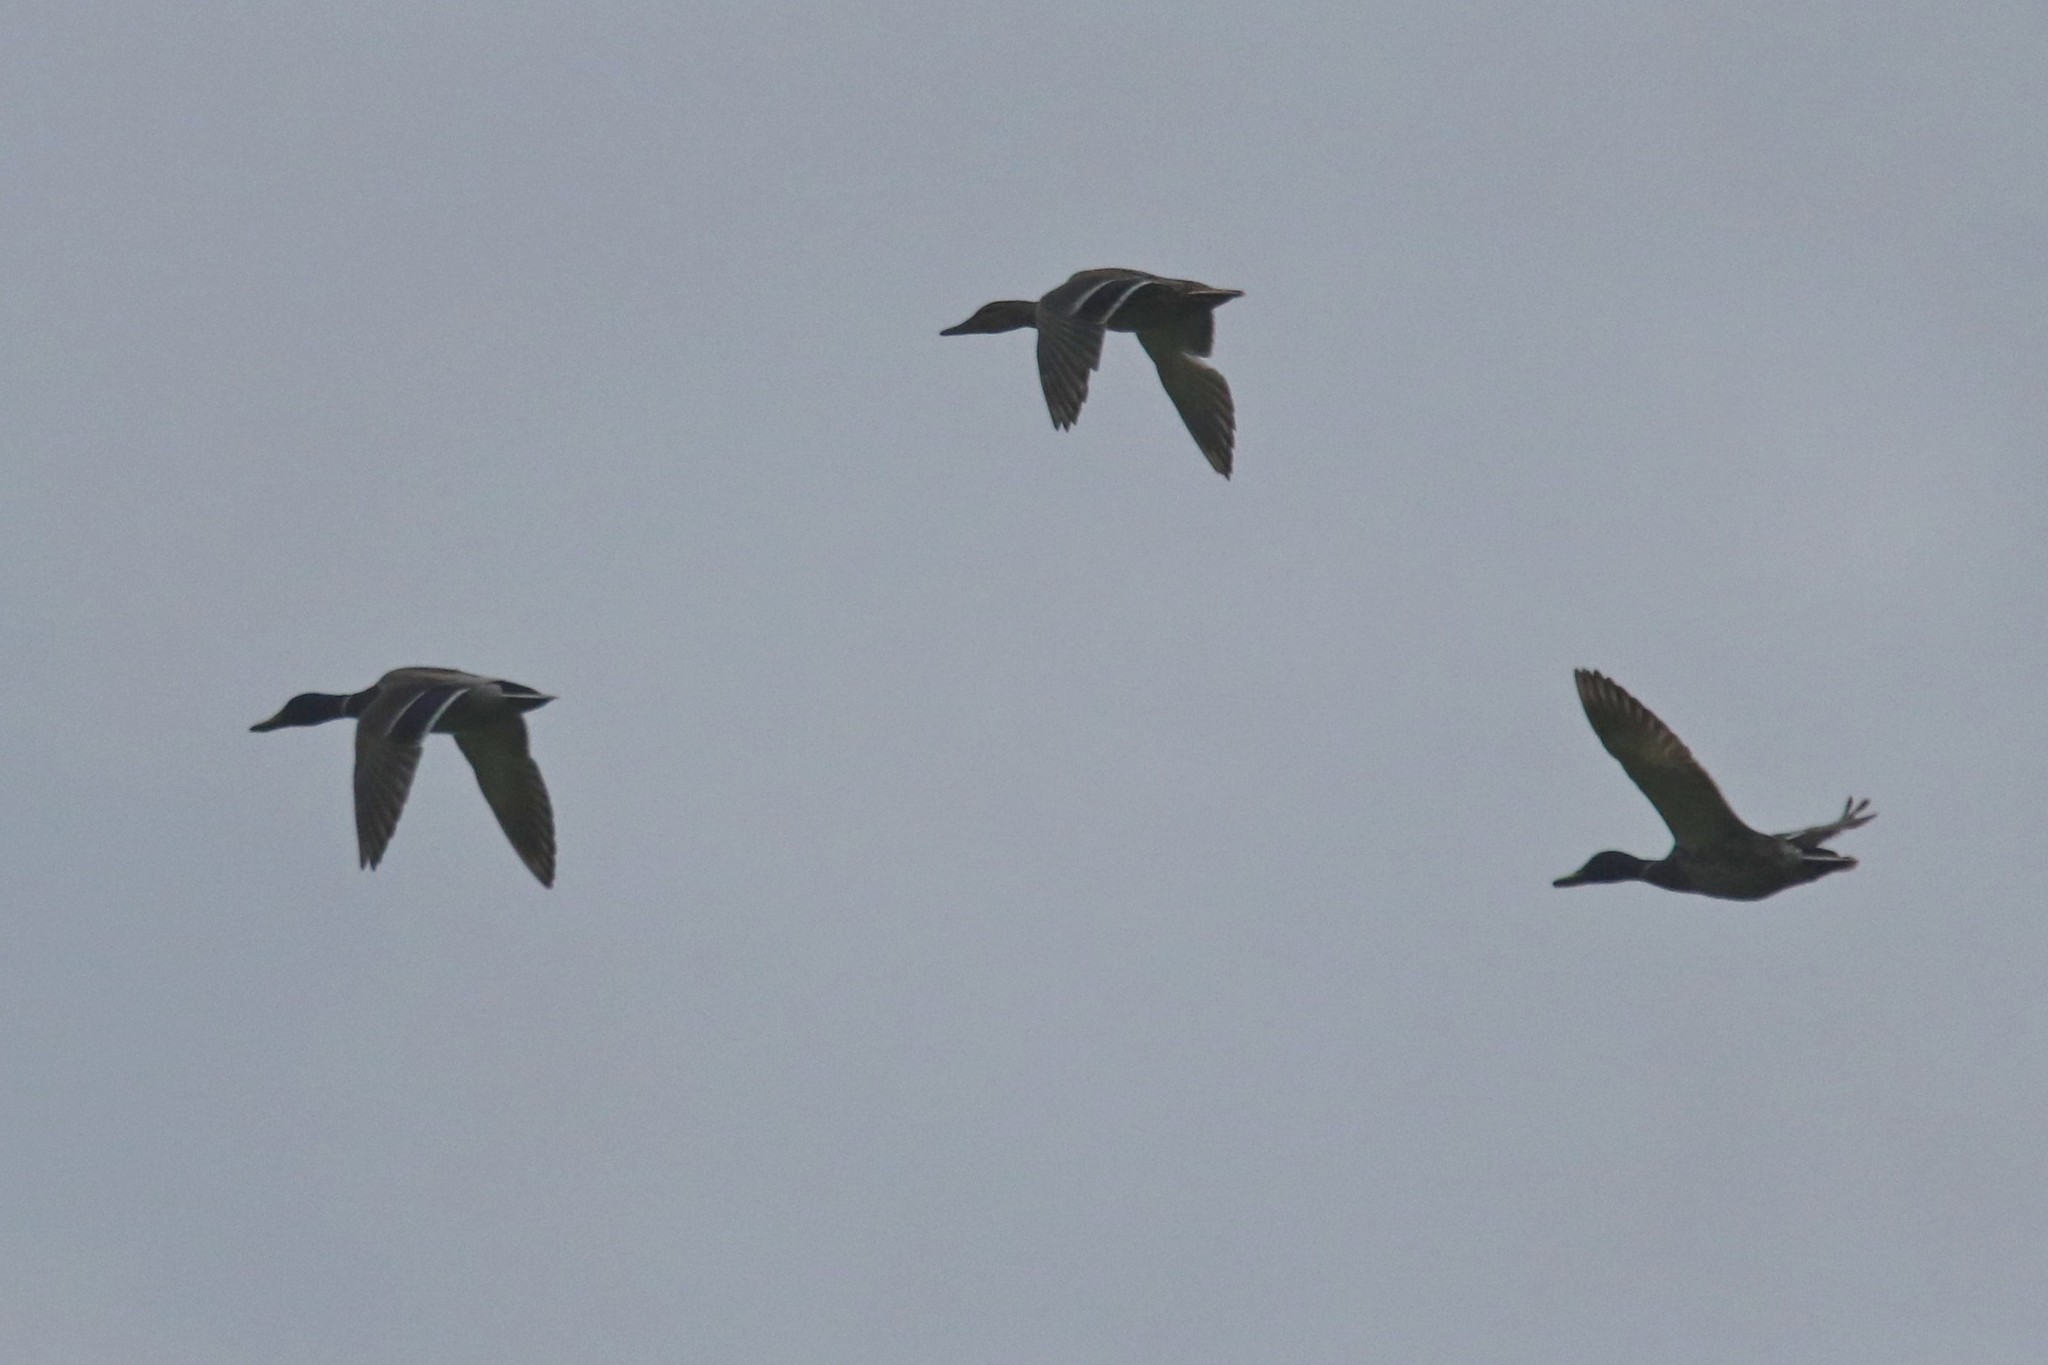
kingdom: Animalia
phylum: Chordata
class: Aves
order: Anseriformes
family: Anatidae
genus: Anas
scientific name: Anas platyrhynchos
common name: Mallard
